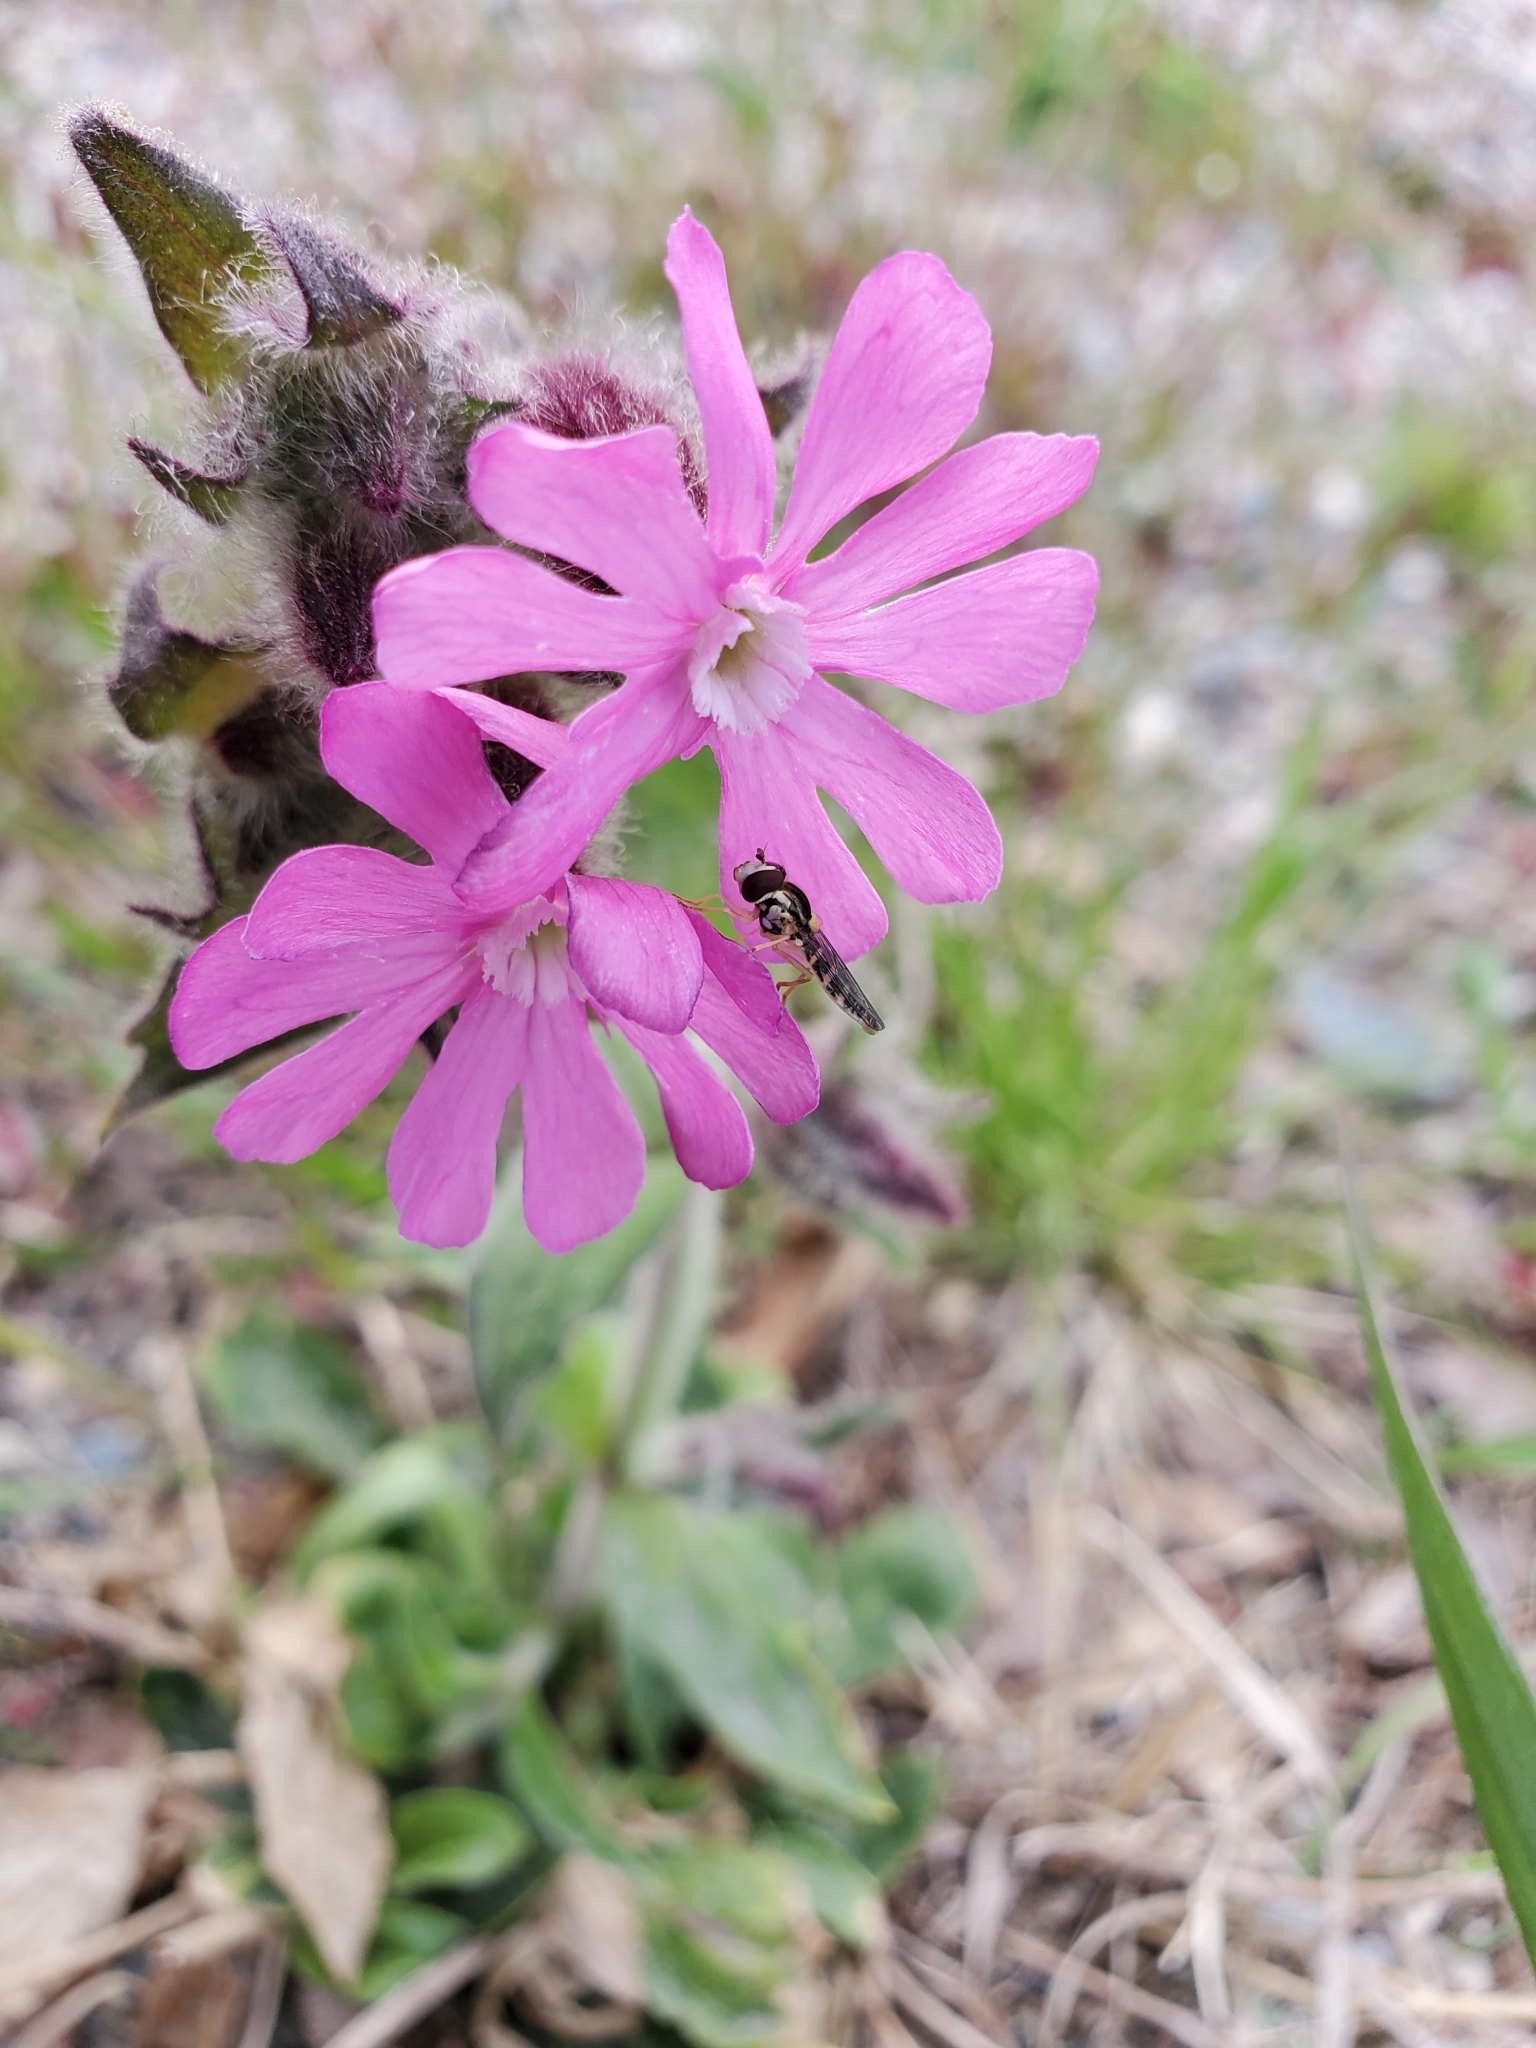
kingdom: Plantae
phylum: Tracheophyta
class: Magnoliopsida
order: Caryophyllales
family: Caryophyllaceae
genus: Silene
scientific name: Silene dioica
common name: Red campion
